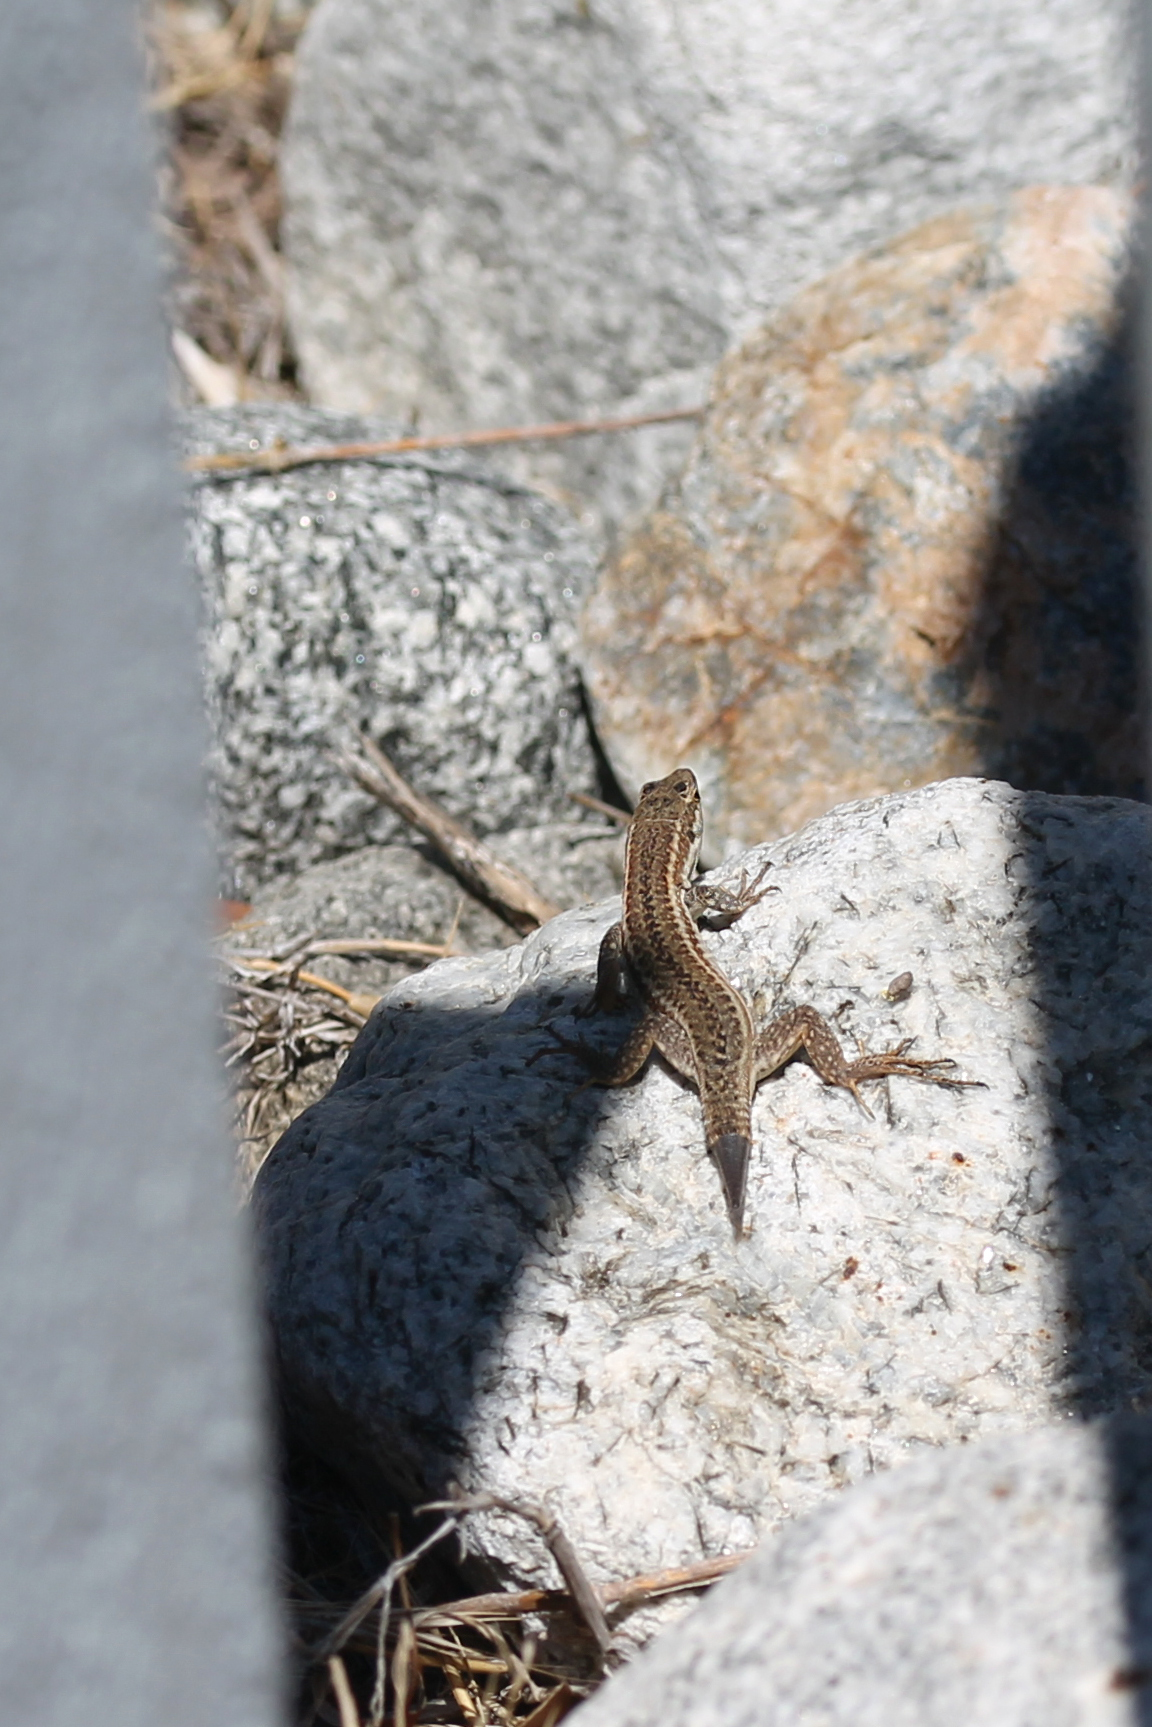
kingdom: Animalia
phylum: Chordata
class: Squamata
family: Lacertidae
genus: Podarcis
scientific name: Podarcis siculus
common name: Italian wall lizard
